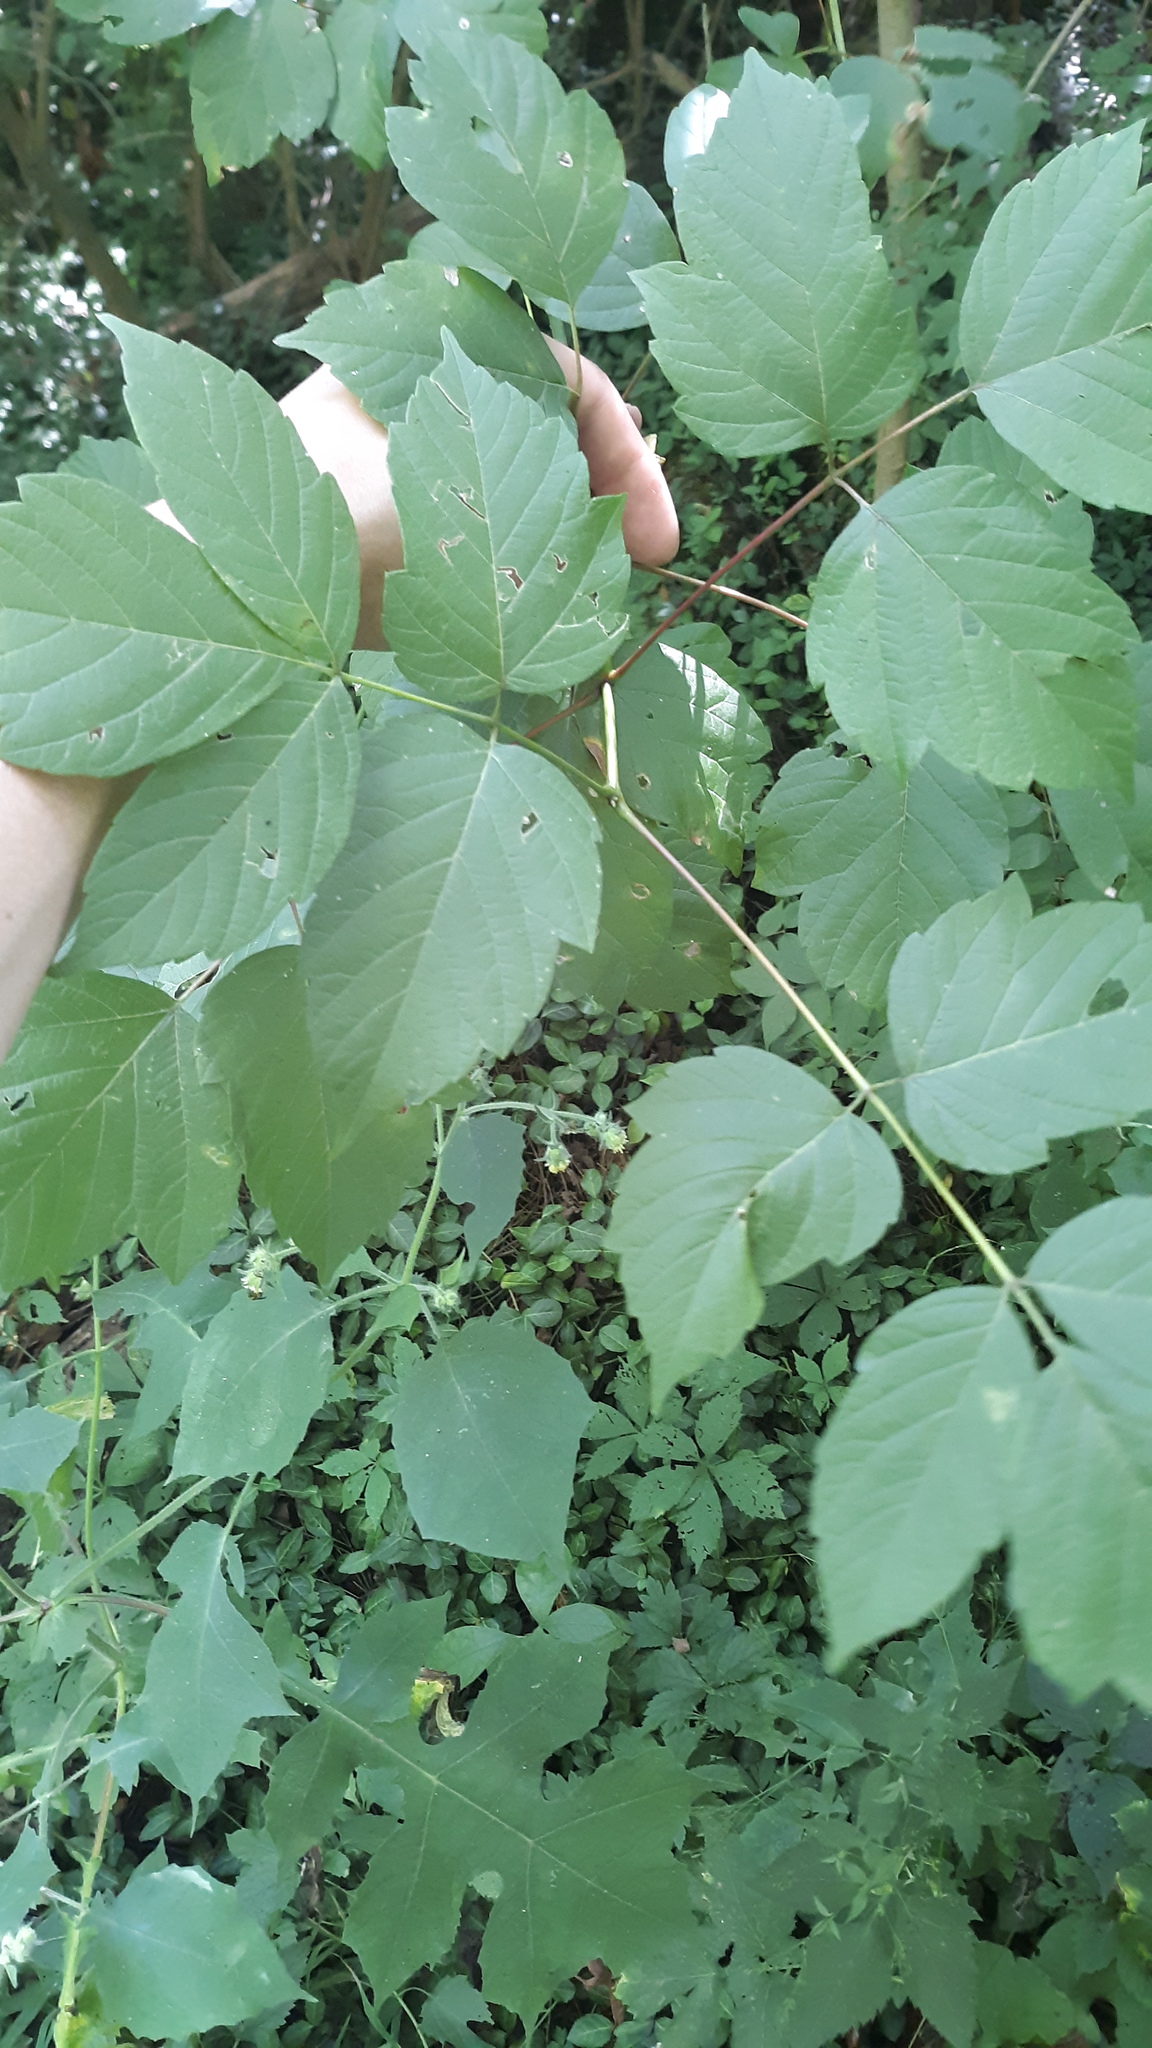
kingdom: Plantae
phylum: Tracheophyta
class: Magnoliopsida
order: Sapindales
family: Sapindaceae
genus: Acer
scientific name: Acer negundo
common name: Ashleaf maple
